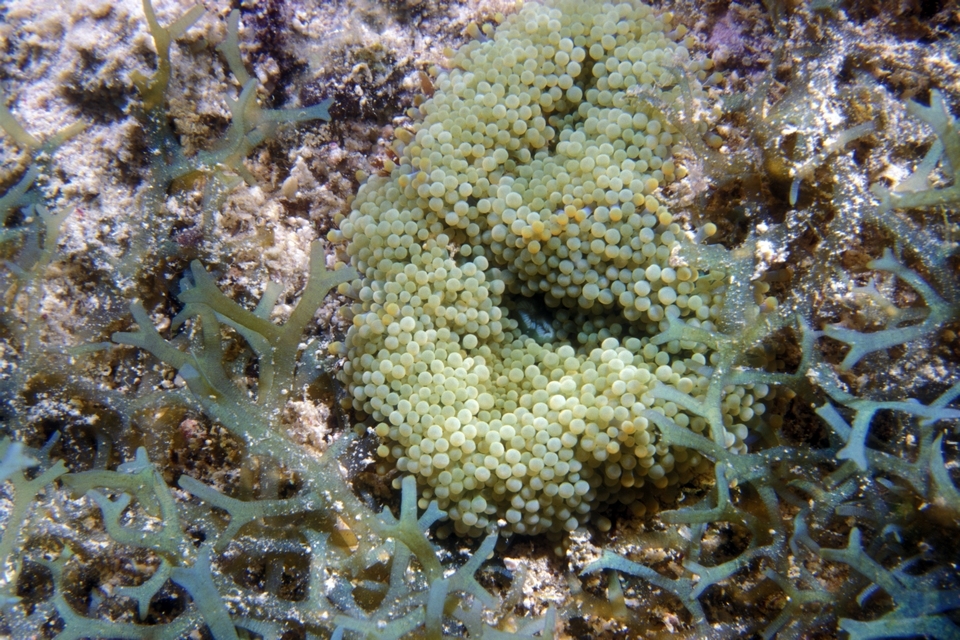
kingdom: Animalia
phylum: Cnidaria
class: Anthozoa
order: Corallimorpharia
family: Ricordeidae
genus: Ricordea
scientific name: Ricordea florida
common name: False coral
